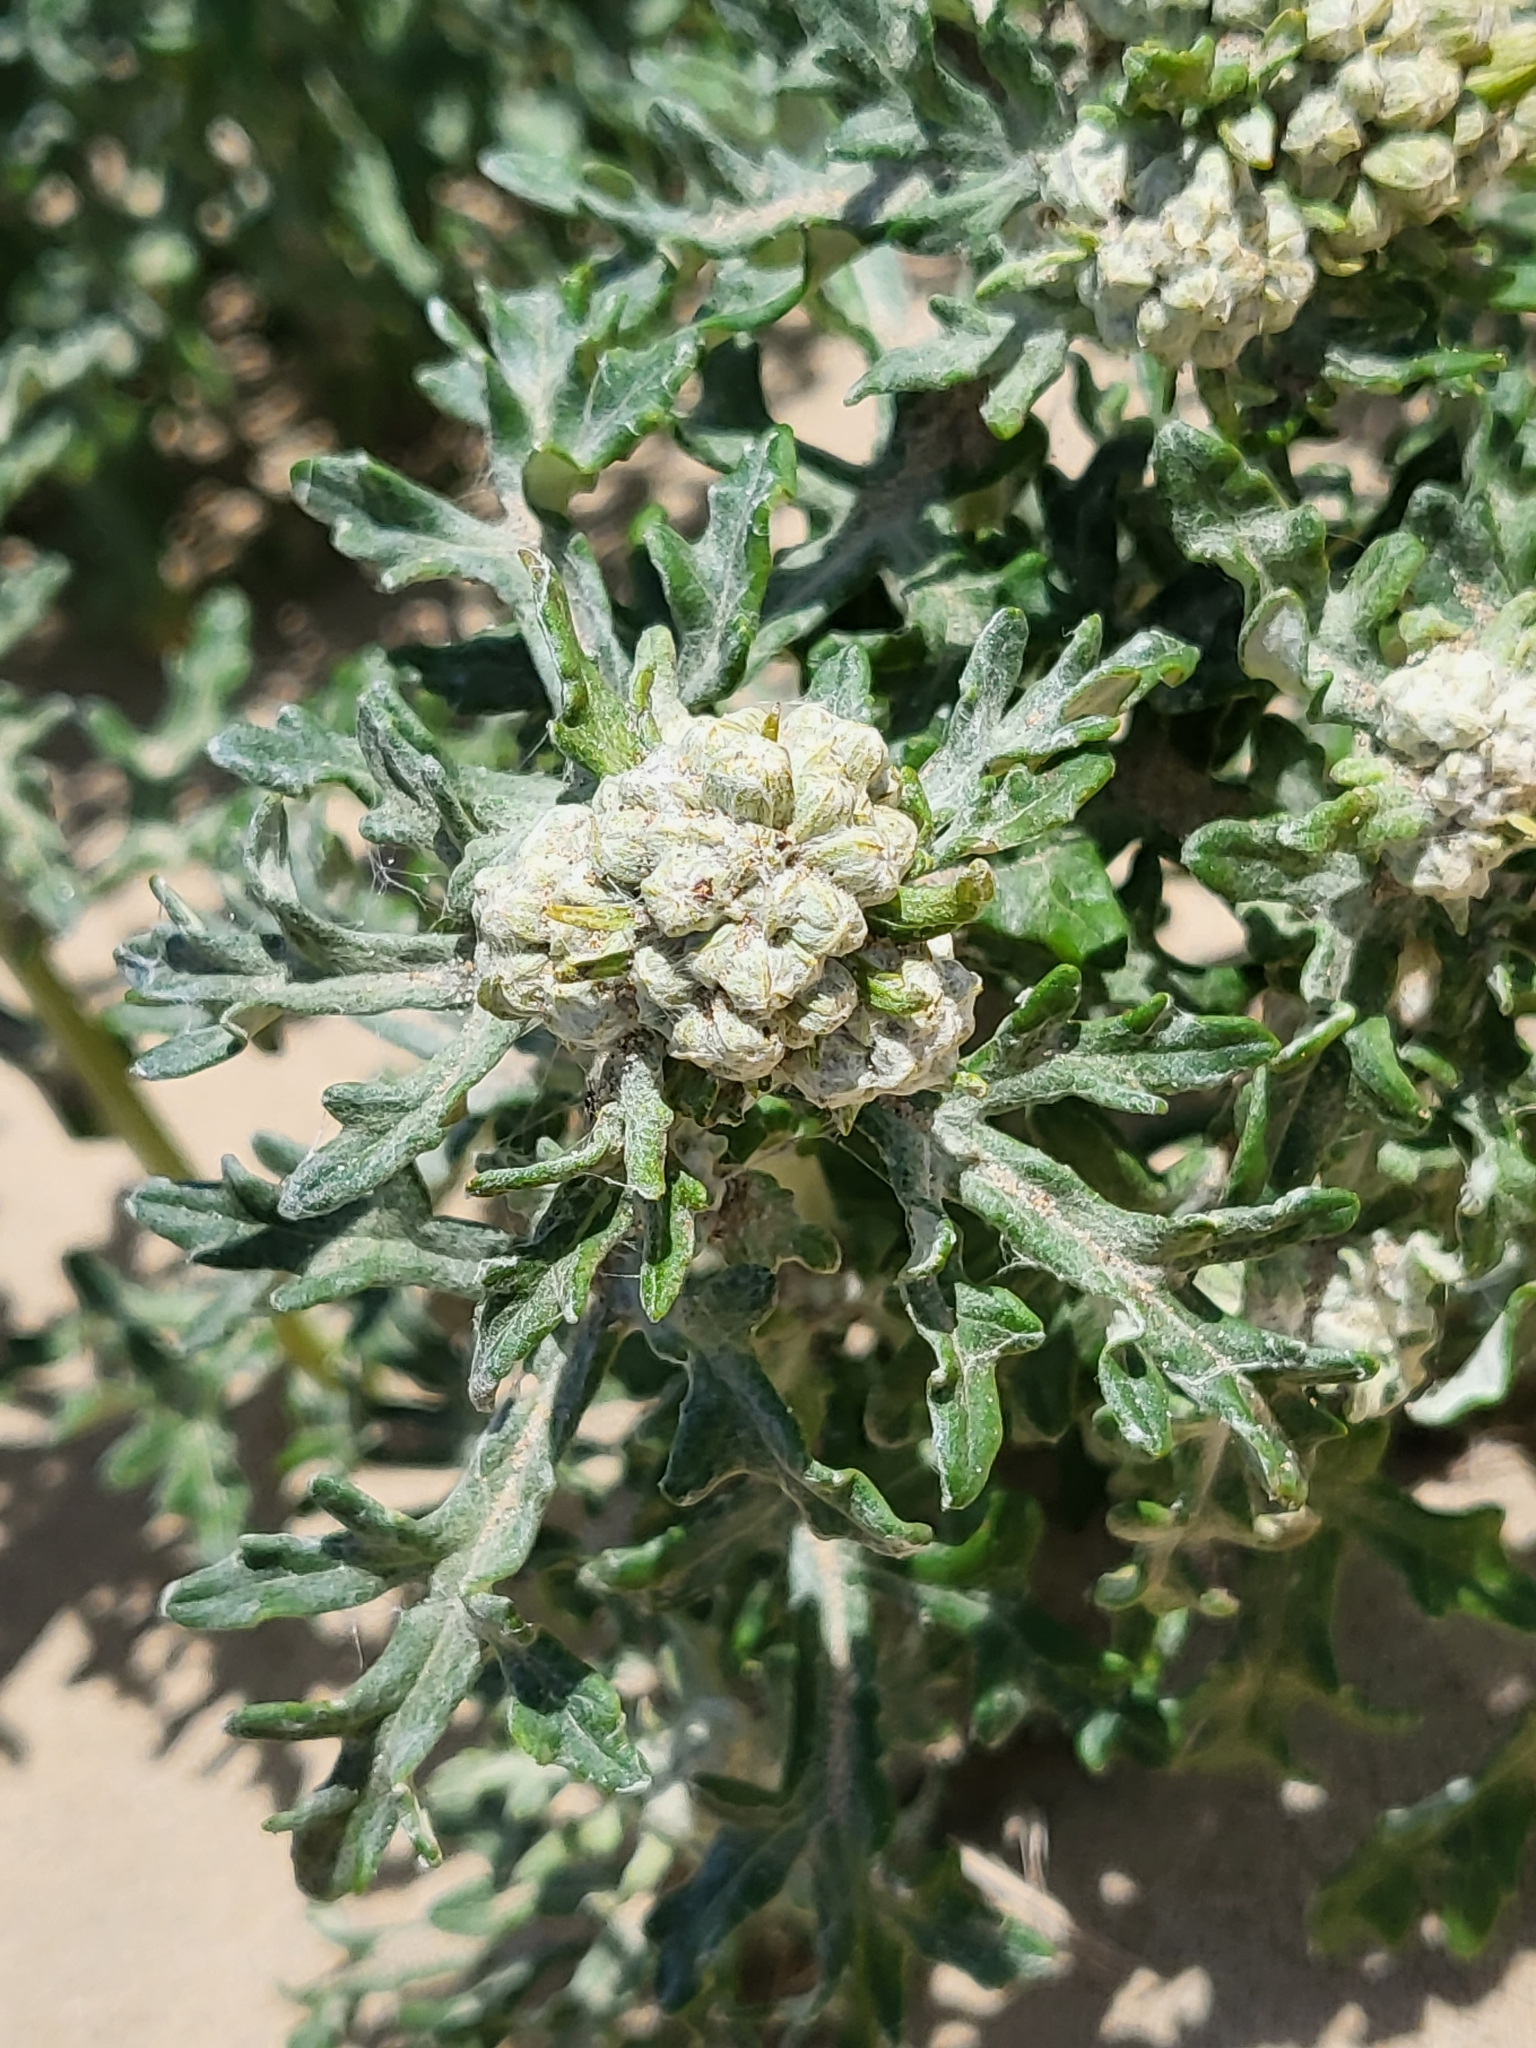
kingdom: Plantae
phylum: Tracheophyta
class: Magnoliopsida
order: Asterales
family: Asteraceae
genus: Eriophyllum
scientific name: Eriophyllum staechadifolium
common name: Lizardtail
